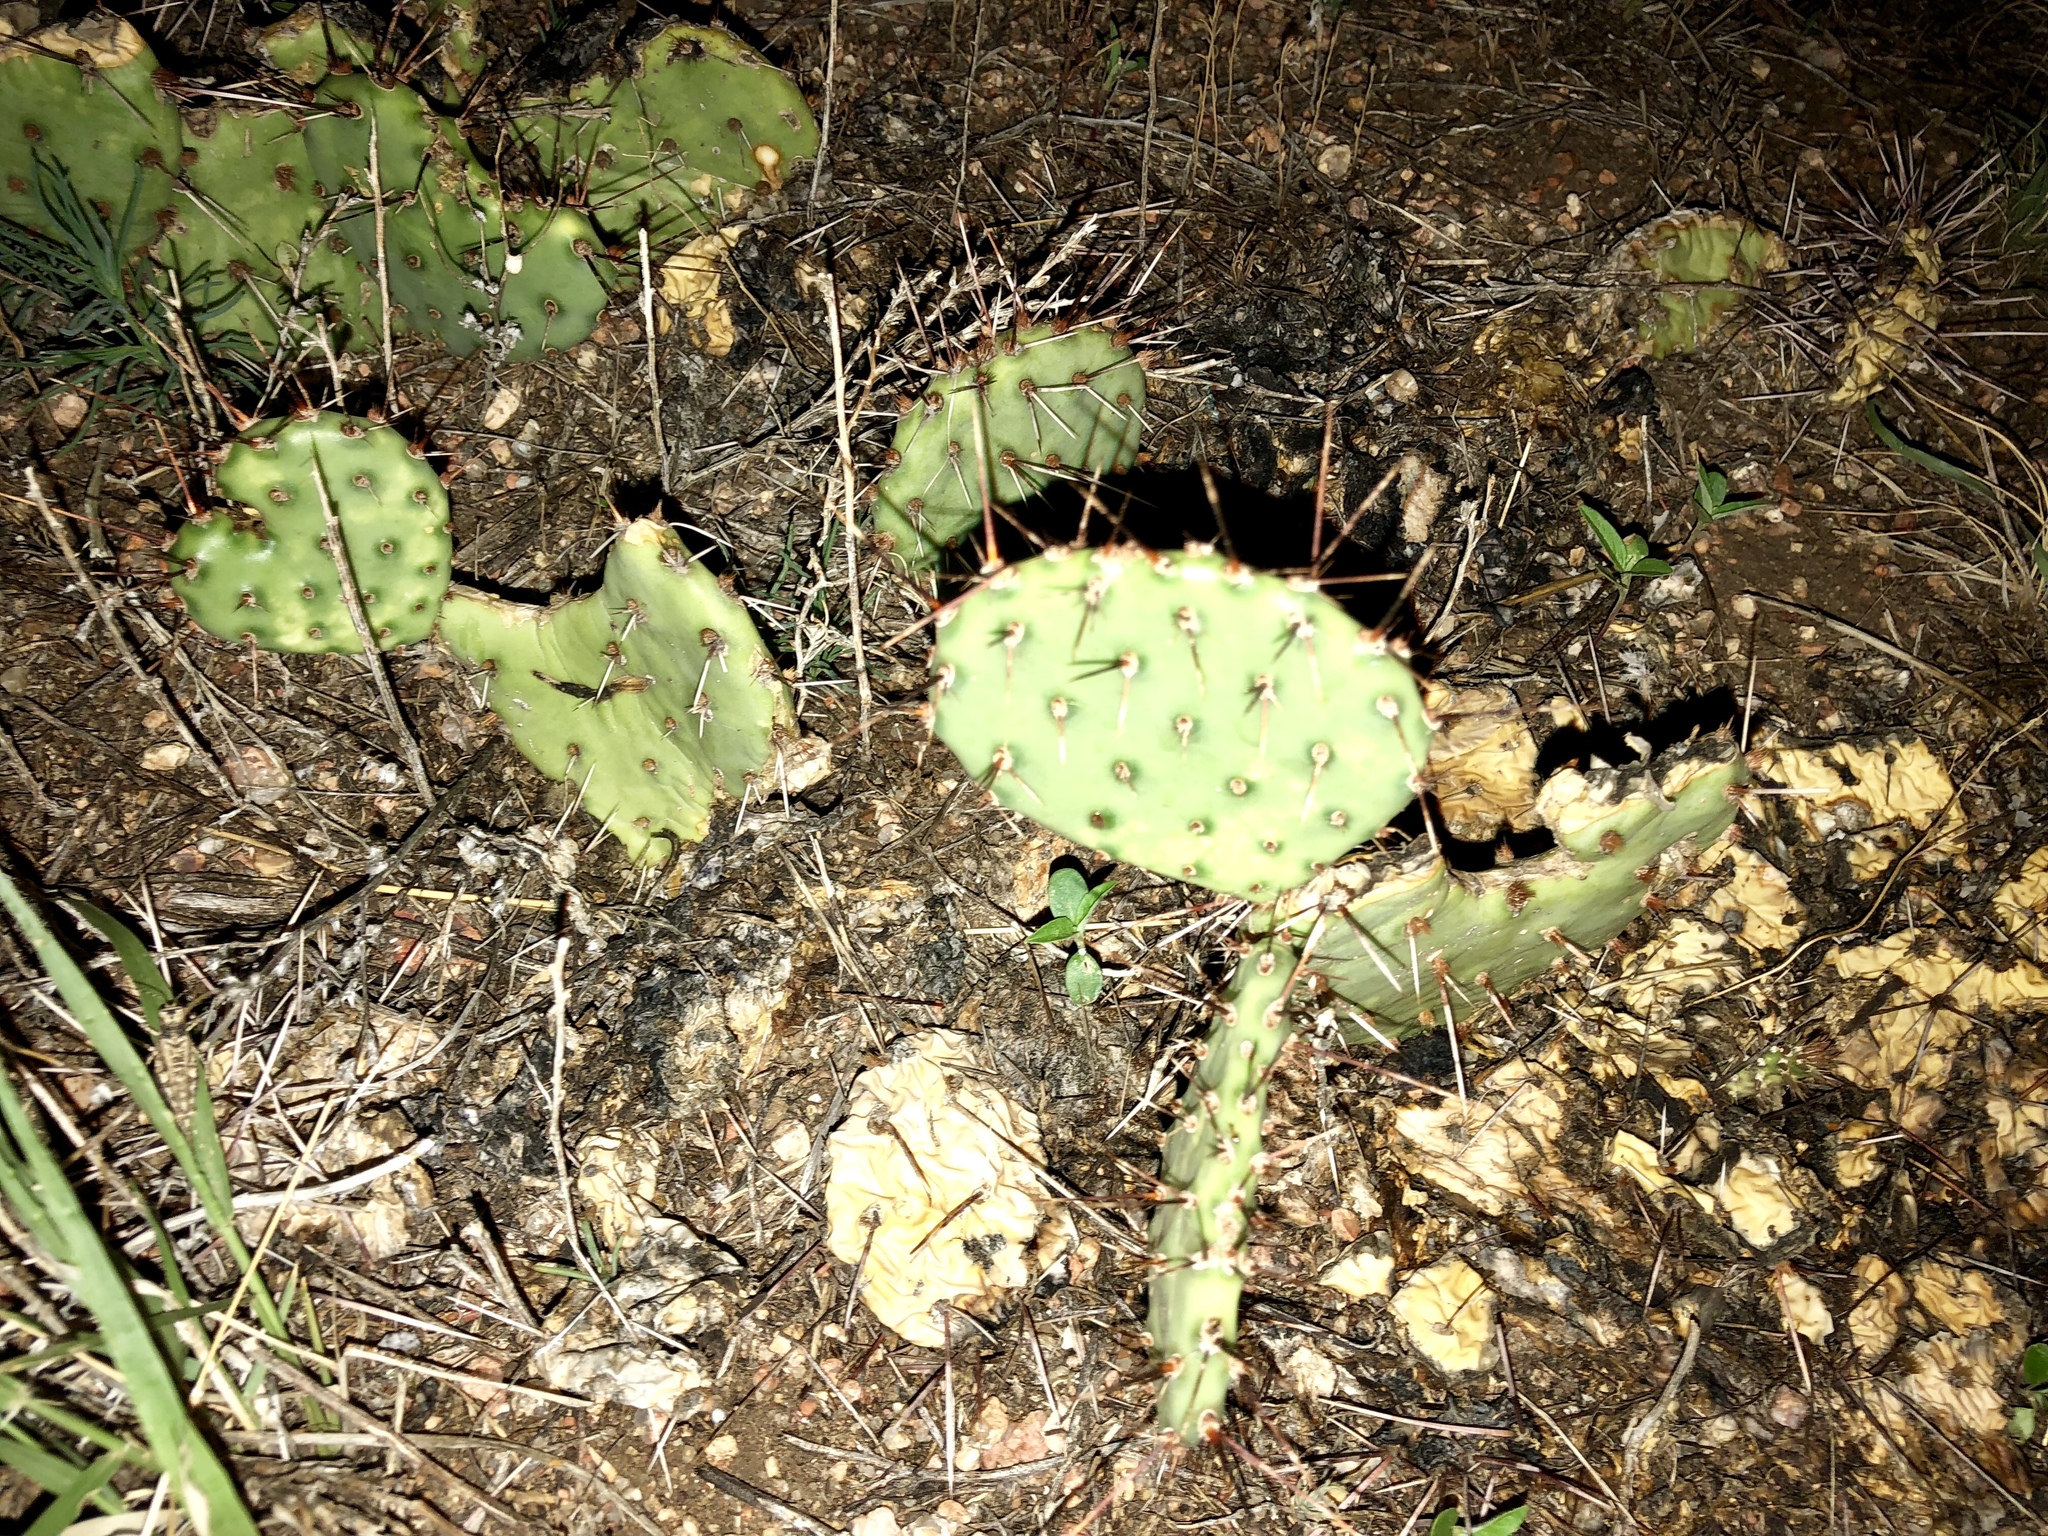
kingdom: Plantae
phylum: Tracheophyta
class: Magnoliopsida
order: Caryophyllales
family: Cactaceae
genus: Opuntia
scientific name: Opuntia phaeacantha
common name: New mexico prickly-pear
